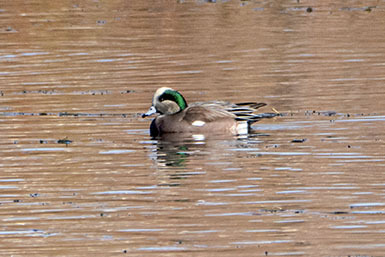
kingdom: Animalia
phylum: Chordata
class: Aves
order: Anseriformes
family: Anatidae
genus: Mareca
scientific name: Mareca americana
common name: American wigeon
